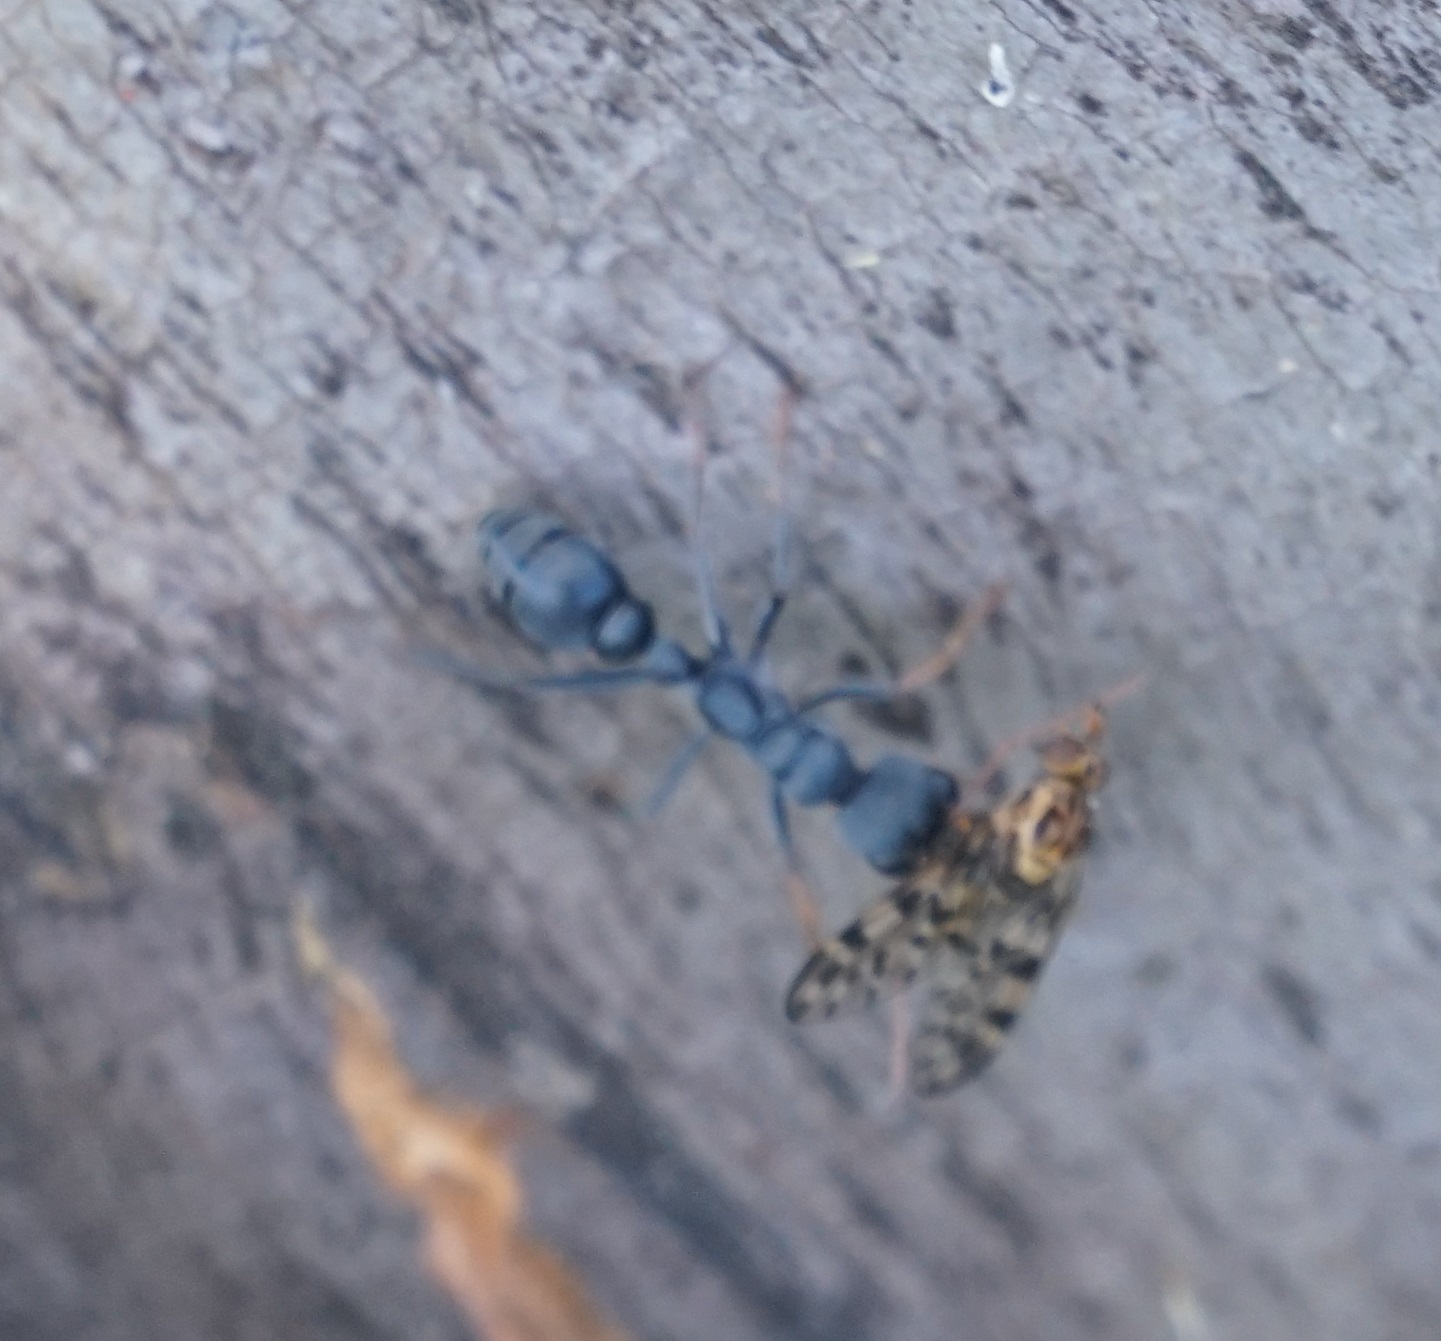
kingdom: Animalia
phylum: Arthropoda
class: Insecta
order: Hymenoptera
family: Formicidae
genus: Myrmecia
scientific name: Myrmecia haskinsorum
